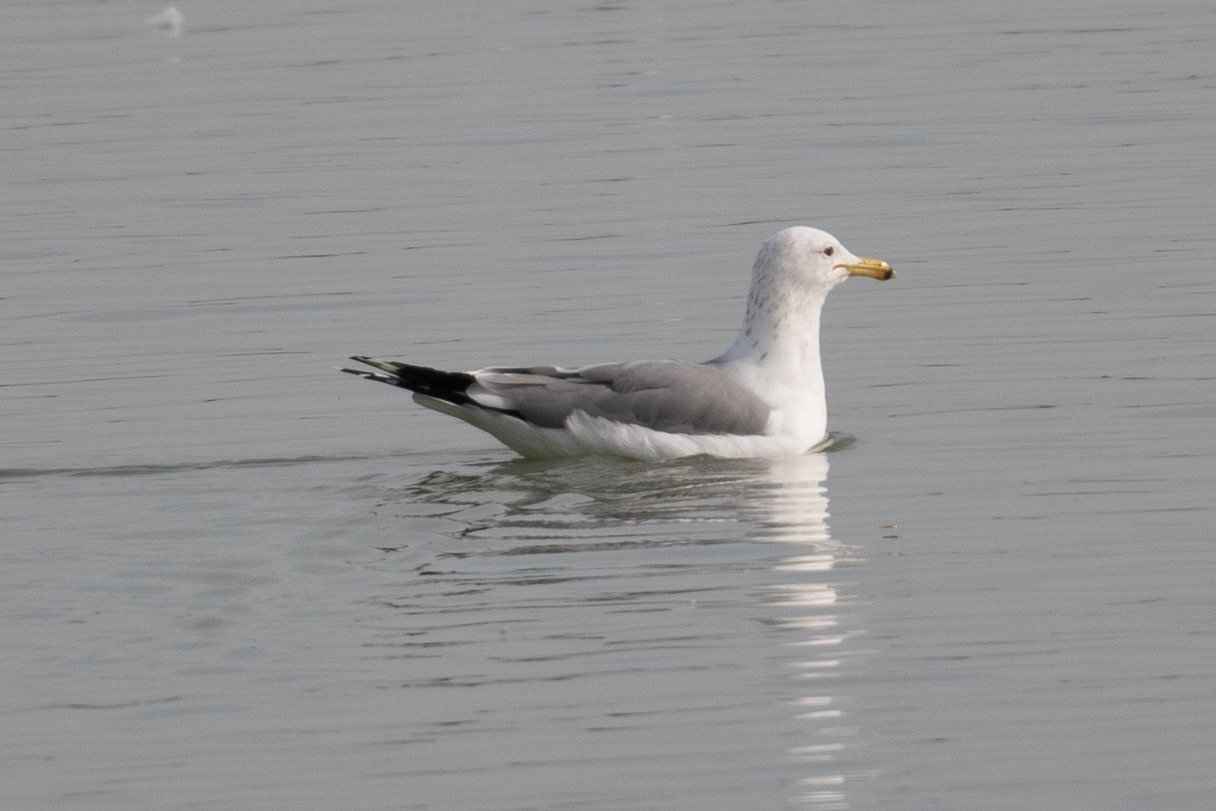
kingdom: Animalia
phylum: Chordata
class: Aves
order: Charadriiformes
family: Laridae
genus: Larus
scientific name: Larus californicus
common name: California gull
